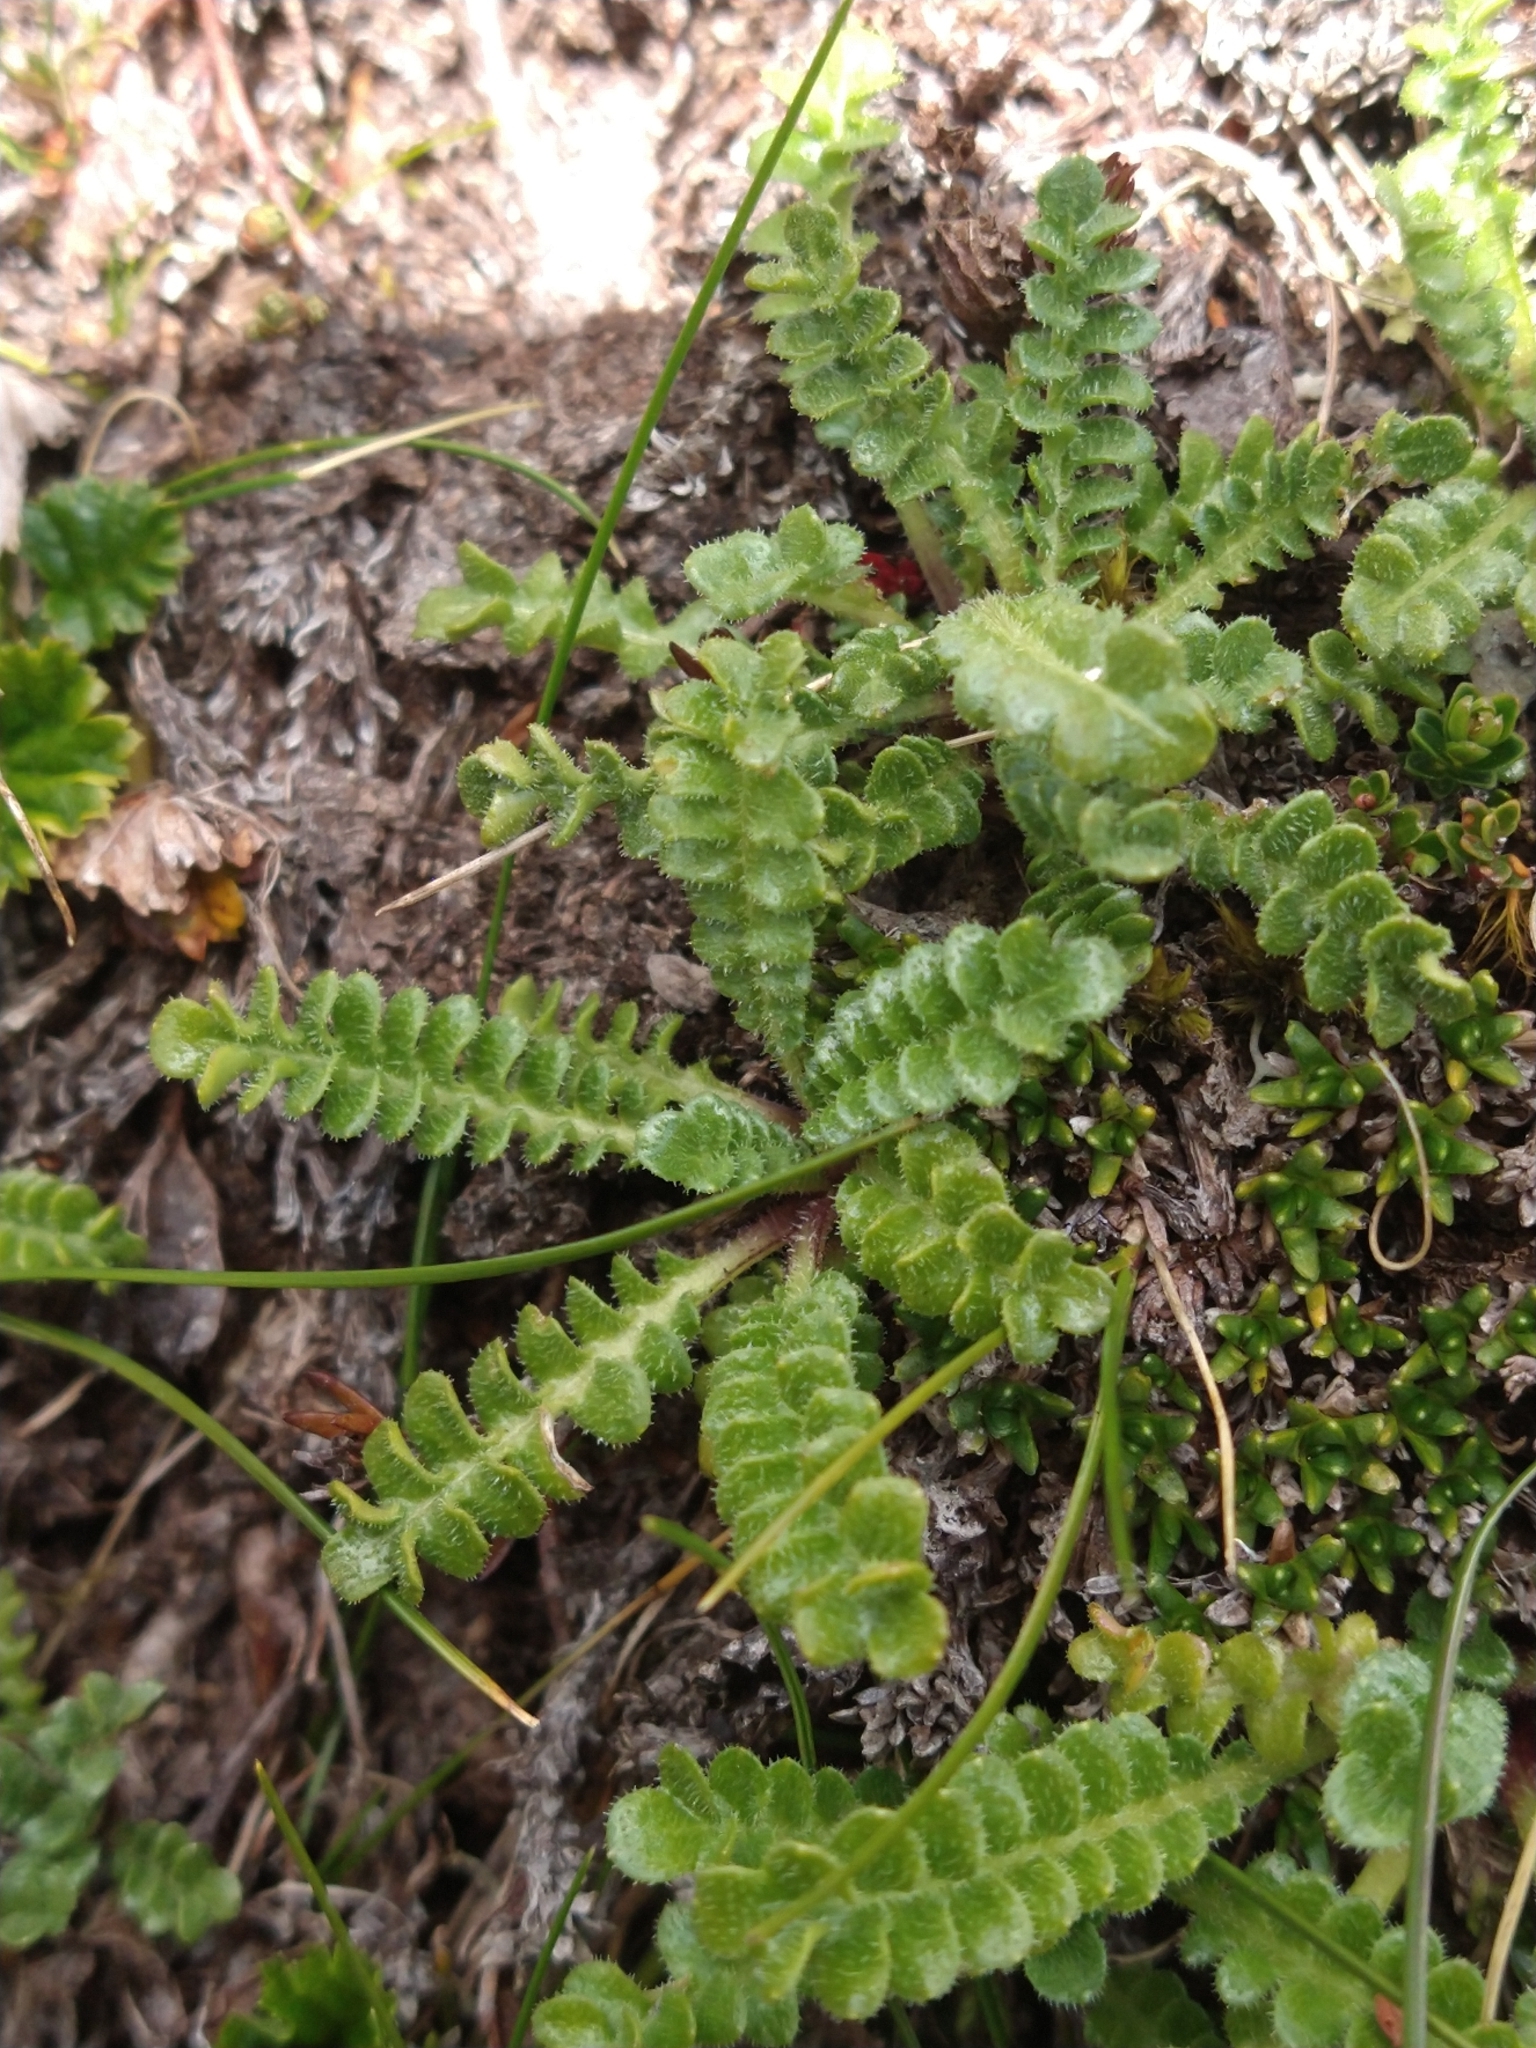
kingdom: Plantae
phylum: Tracheophyta
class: Magnoliopsida
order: Asterales
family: Asteraceae
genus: Perezia
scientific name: Perezia magellanica
